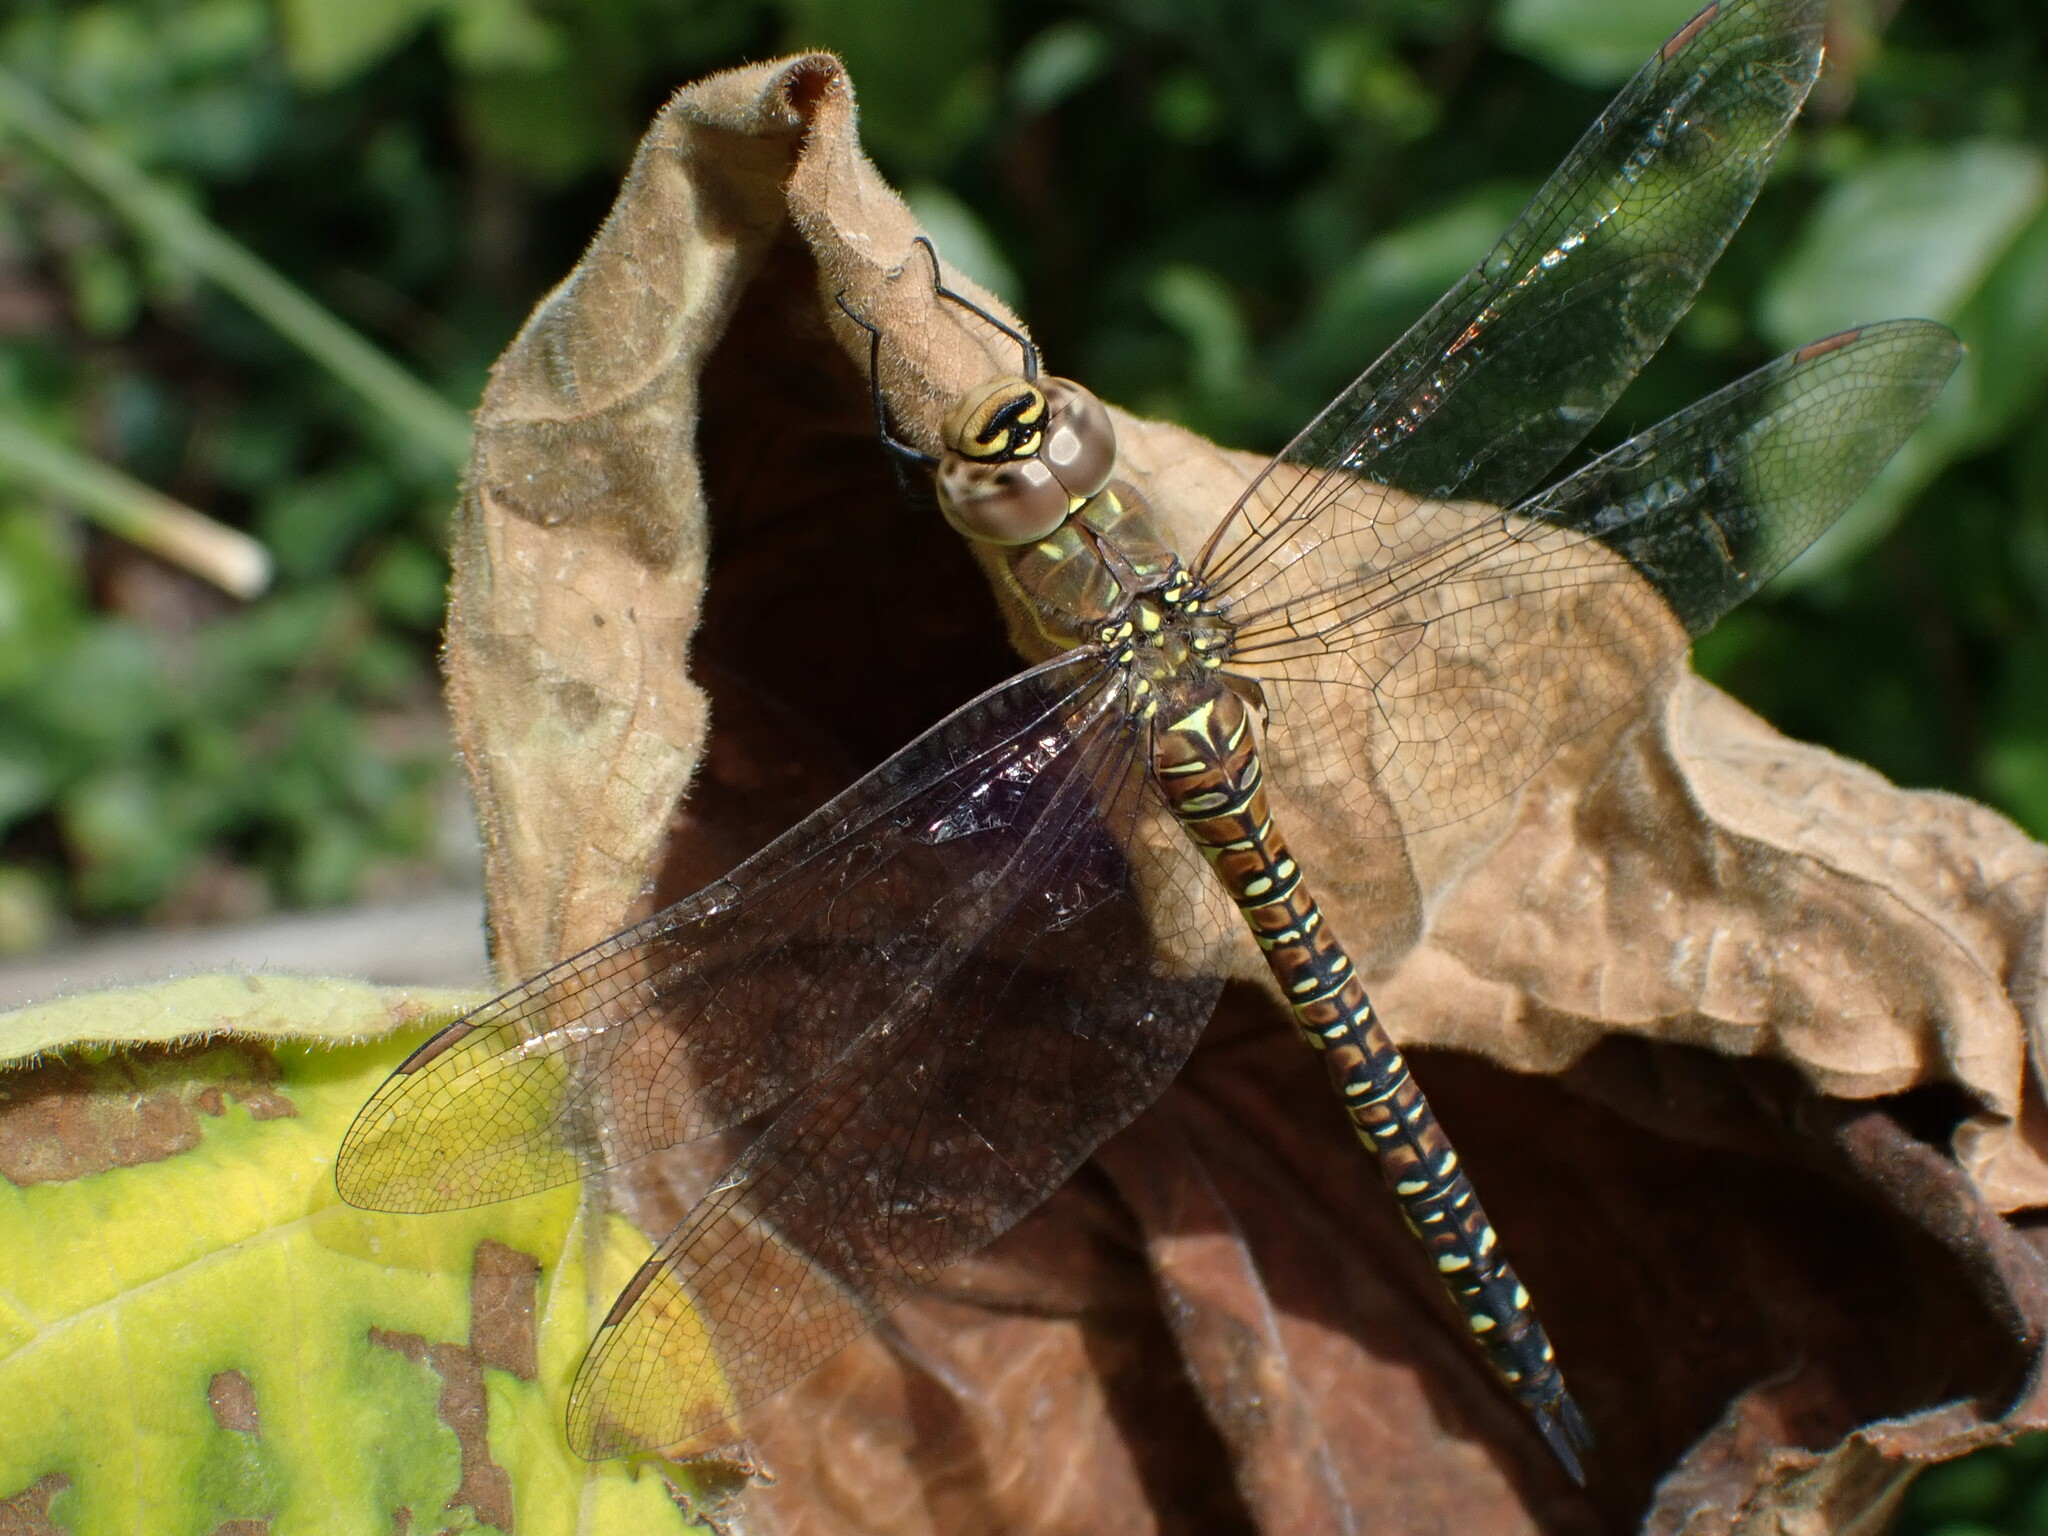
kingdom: Animalia
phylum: Arthropoda
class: Insecta
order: Odonata
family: Aeshnidae
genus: Aeshna
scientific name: Aeshna mixta
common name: Migrant hawker
